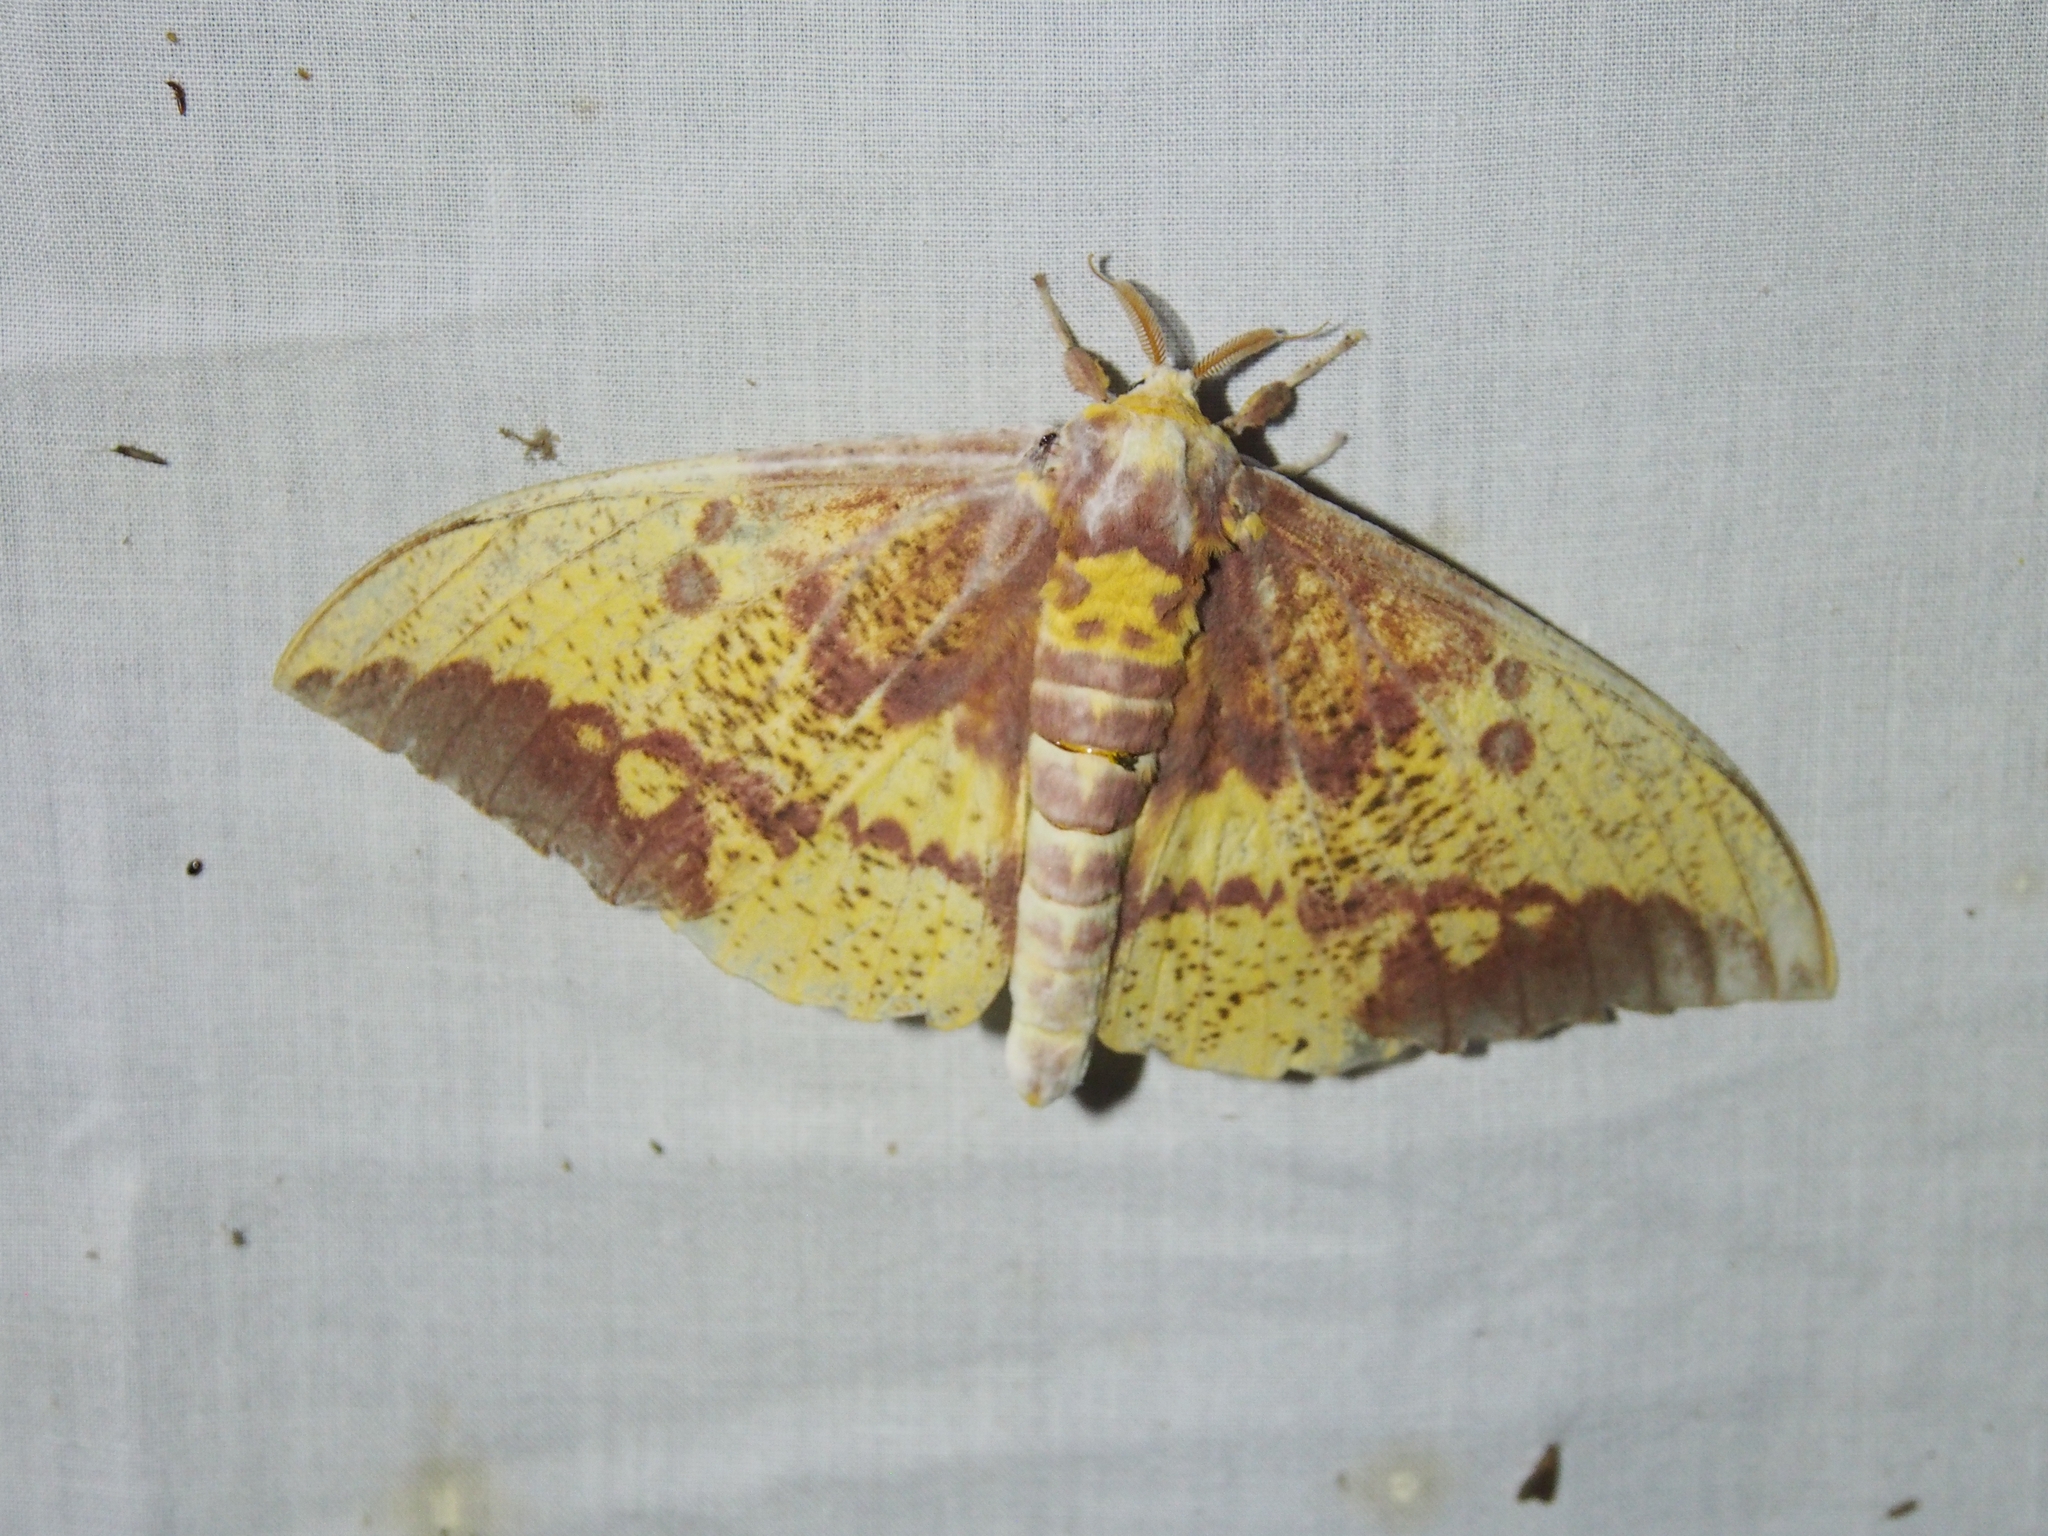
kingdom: Animalia
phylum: Arthropoda
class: Insecta
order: Lepidoptera
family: Saturniidae
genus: Eacles
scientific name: Eacles imperialis
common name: Imperial moth
